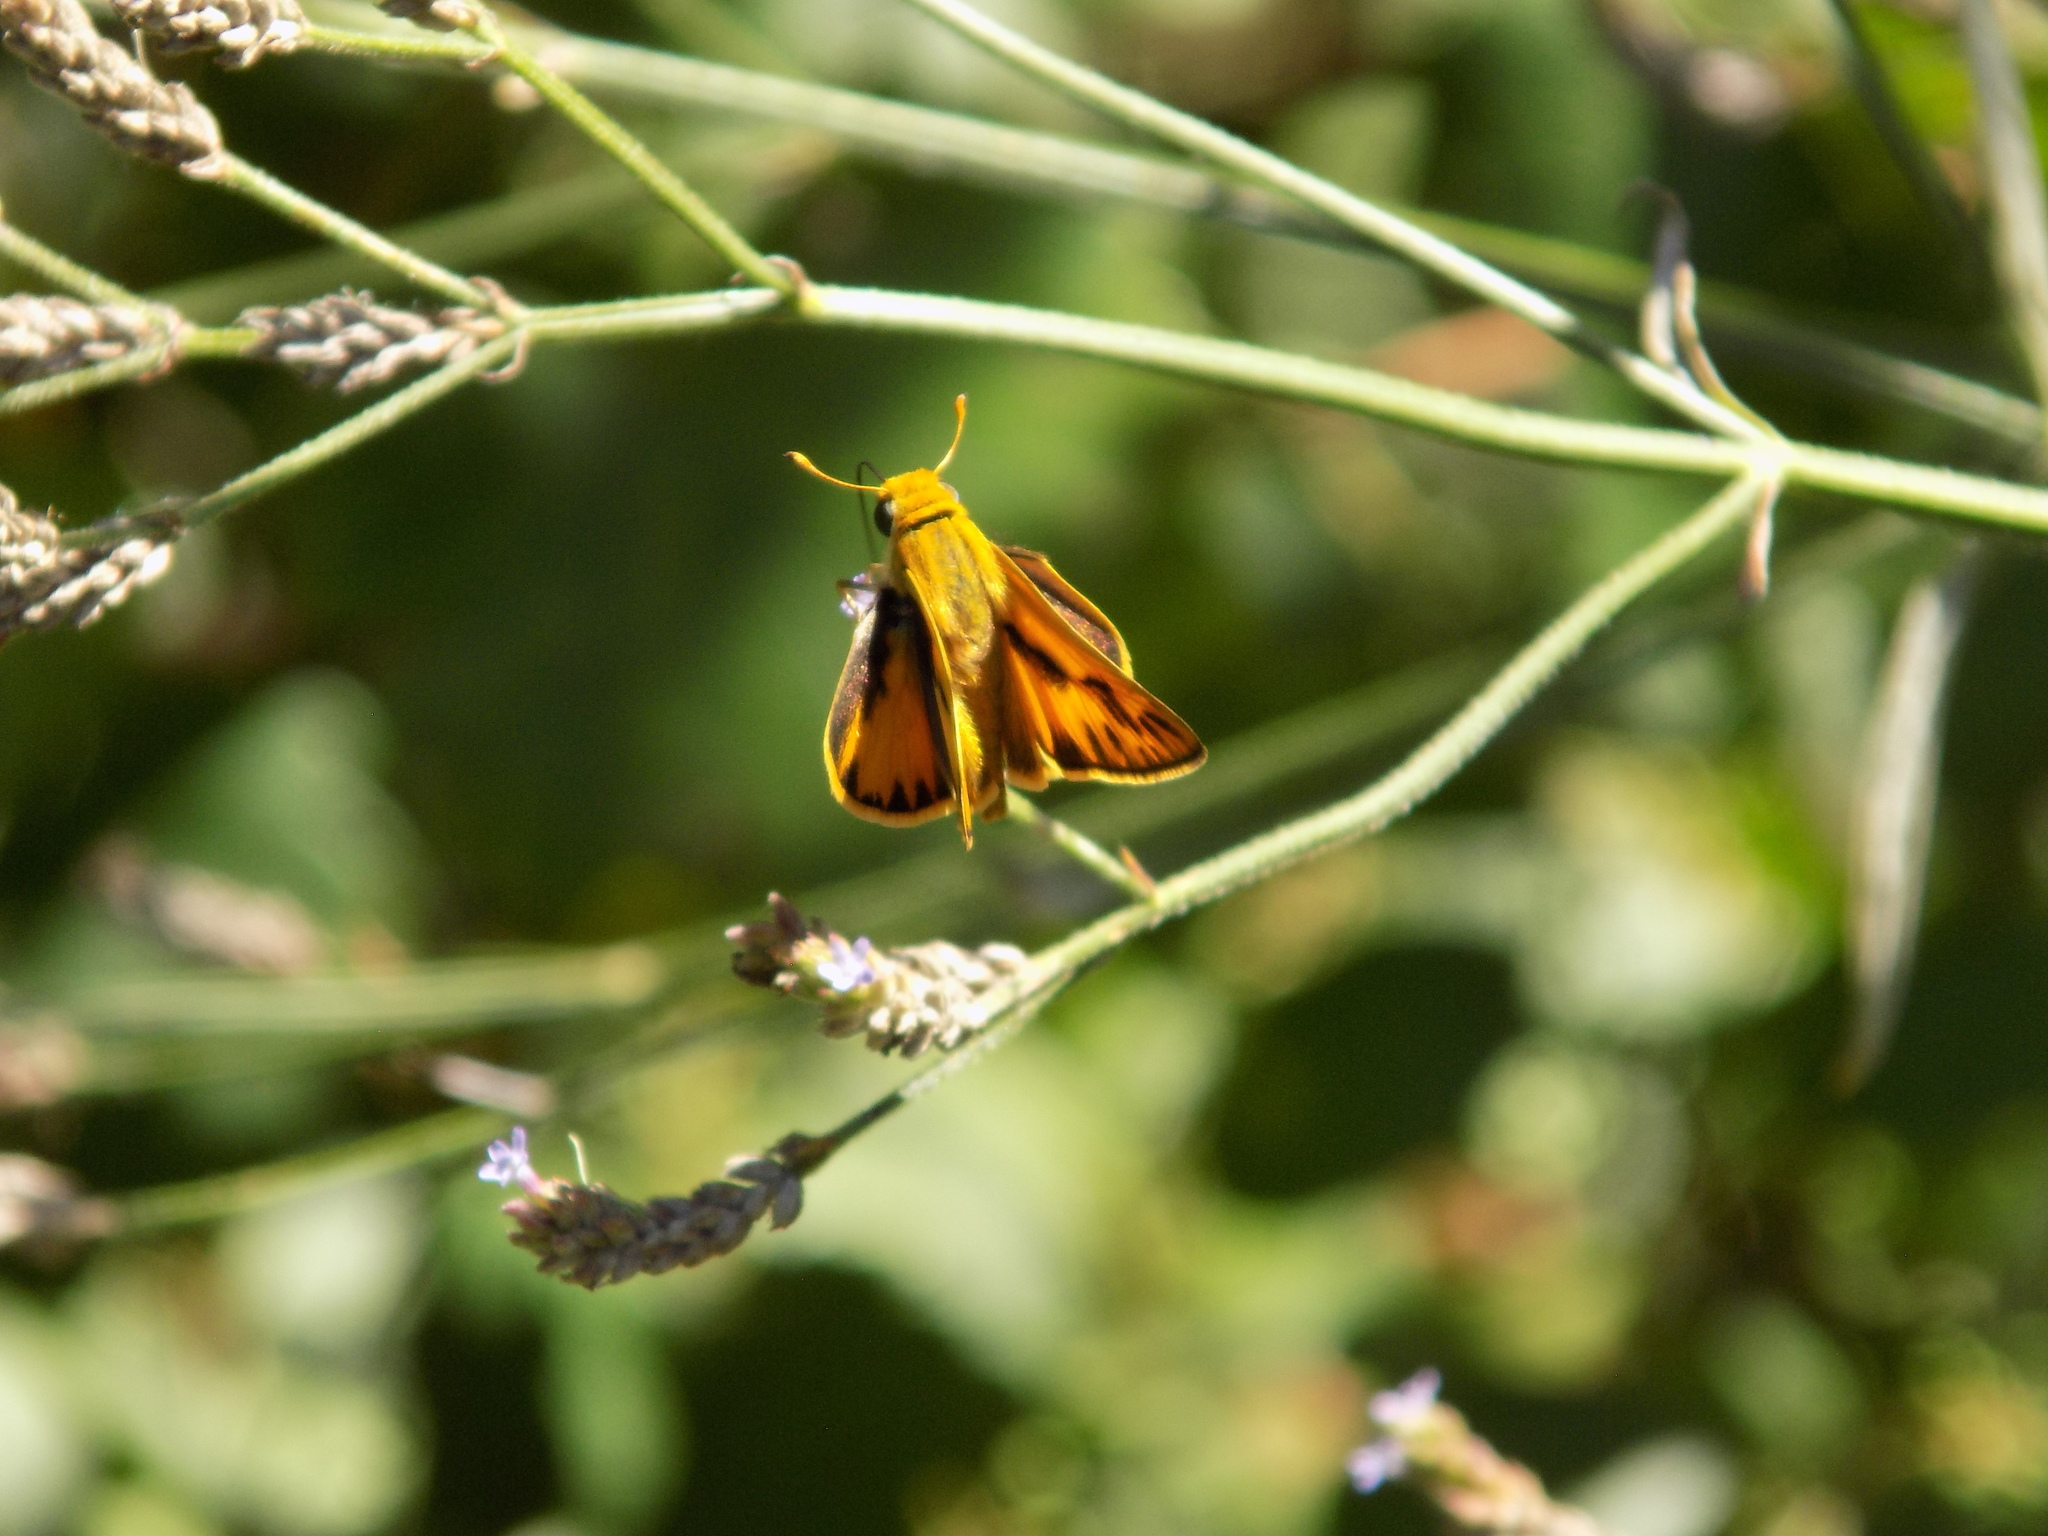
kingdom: Animalia
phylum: Arthropoda
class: Insecta
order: Lepidoptera
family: Hesperiidae
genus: Hylephila
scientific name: Hylephila phyleus
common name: Fiery skipper
